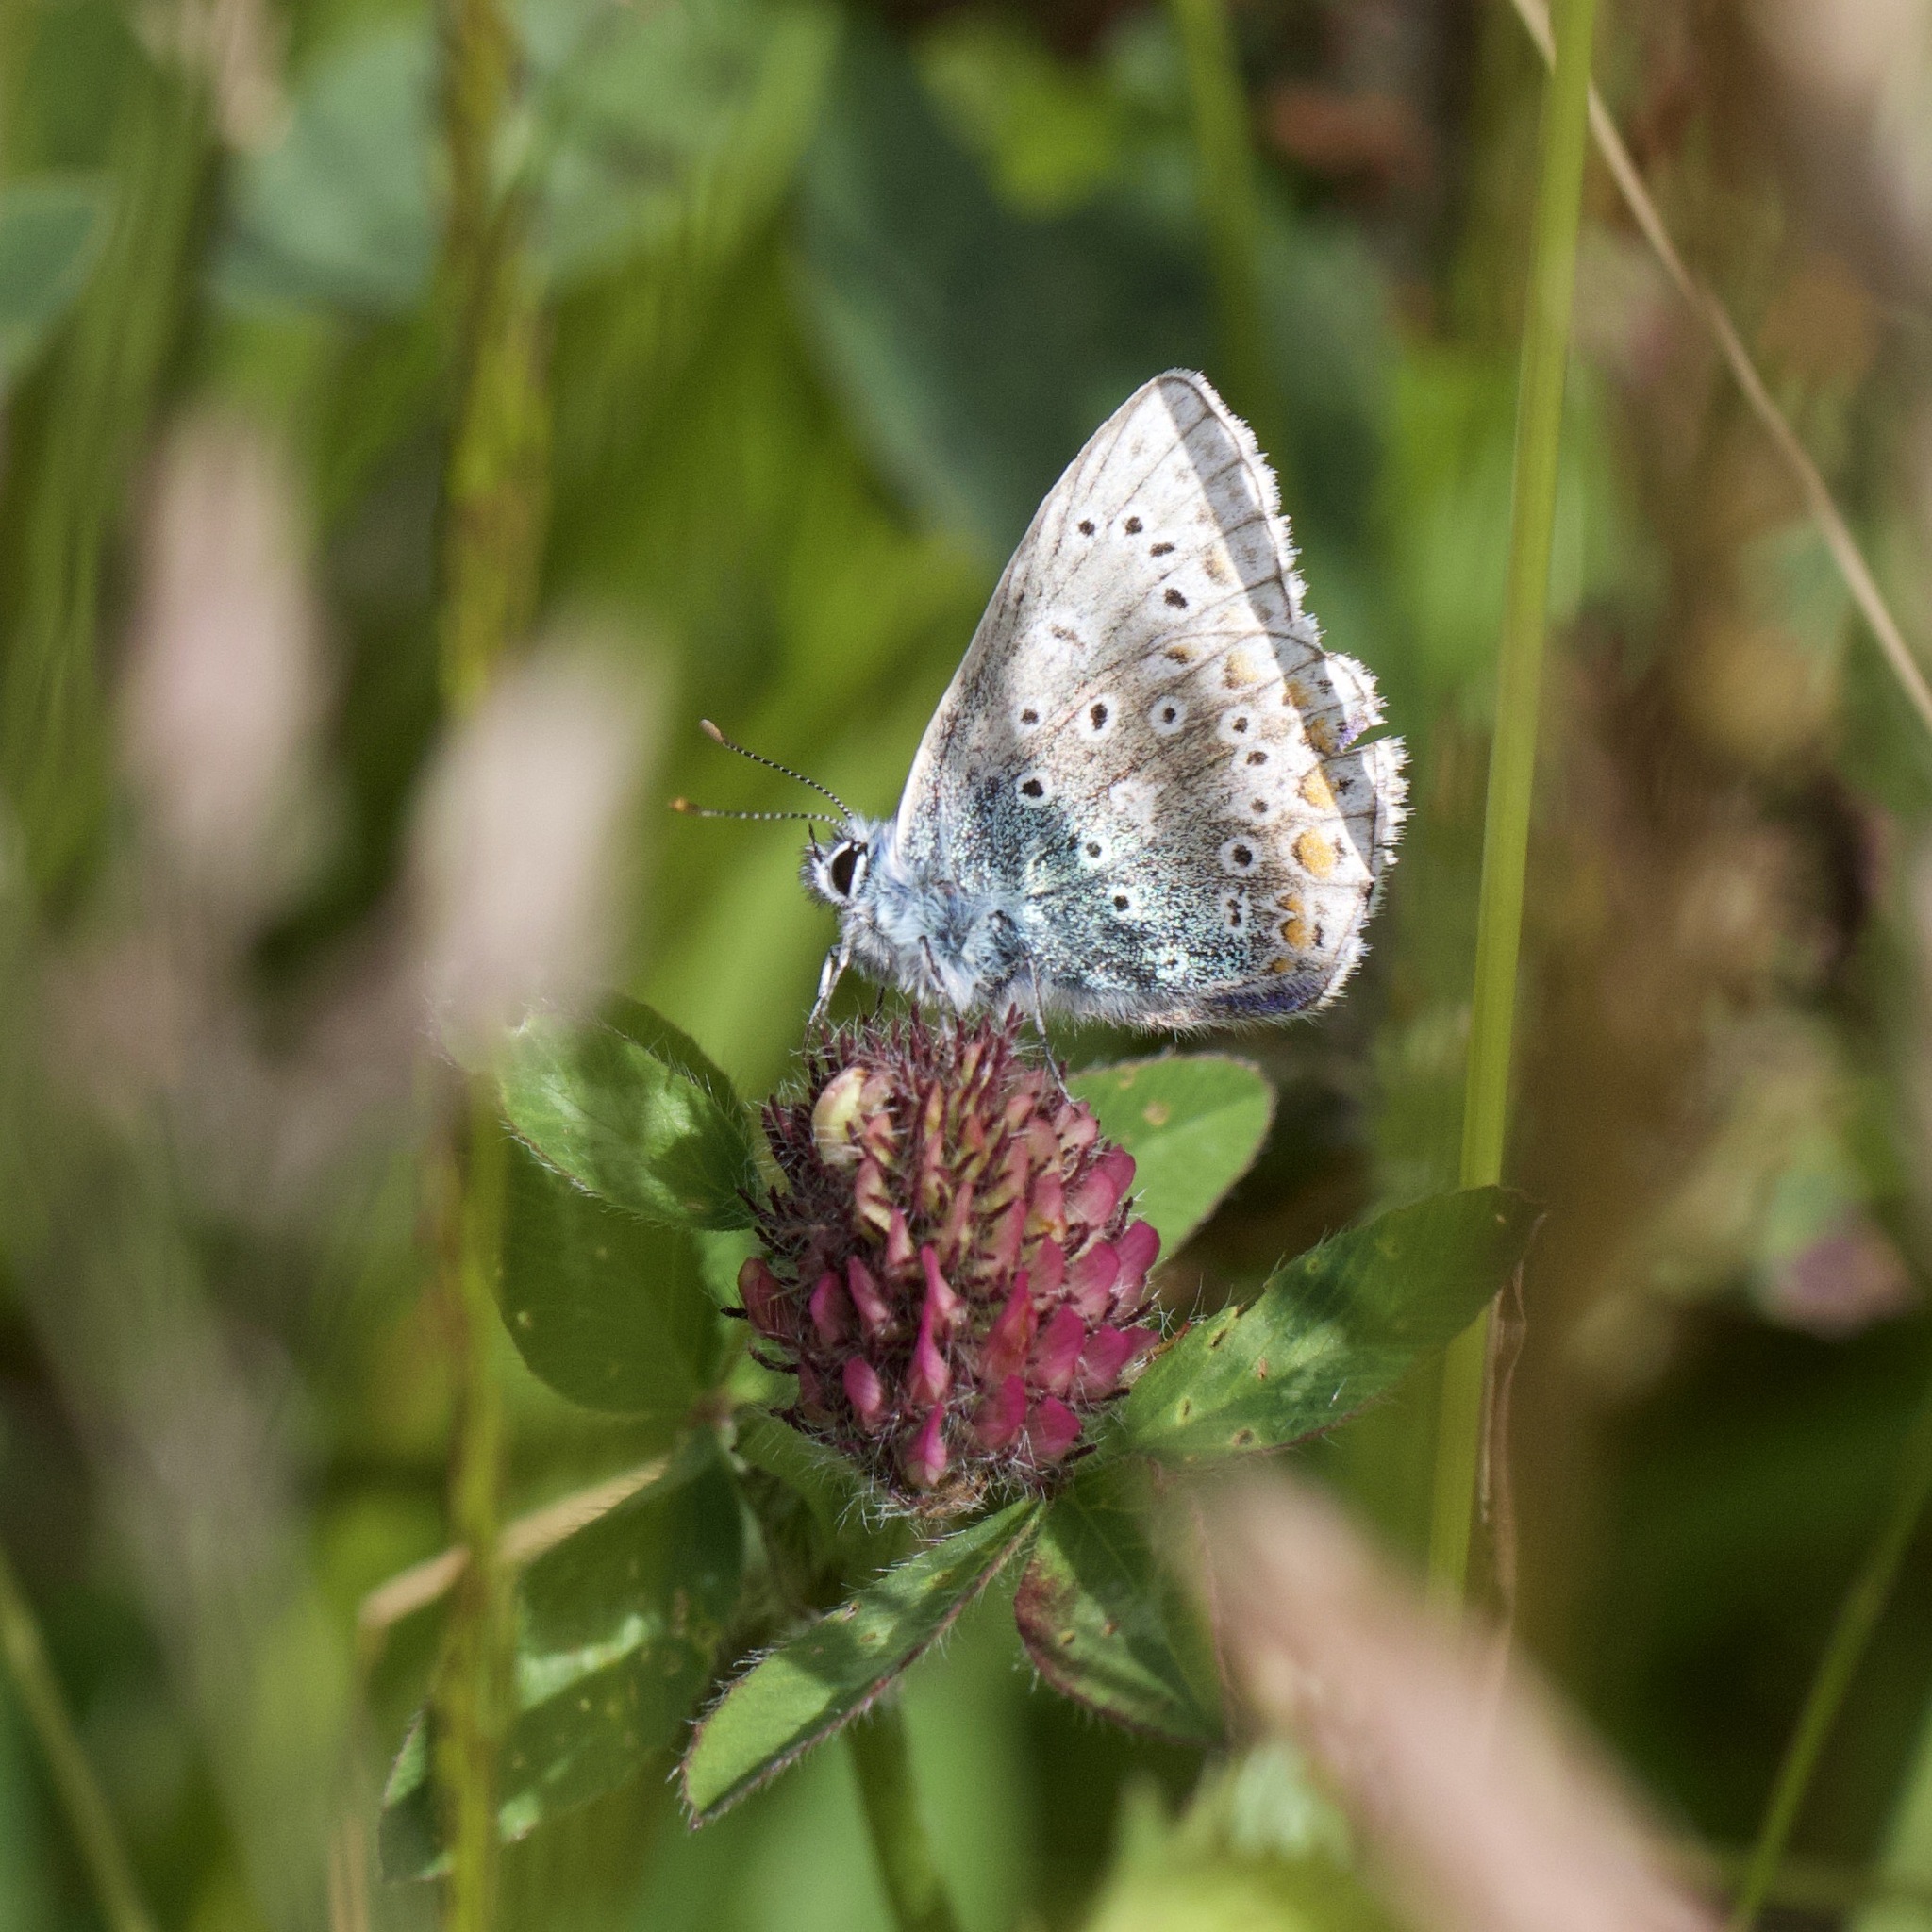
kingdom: Animalia
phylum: Arthropoda
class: Insecta
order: Lepidoptera
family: Lycaenidae
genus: Polyommatus
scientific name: Polyommatus icarus
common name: Common blue
